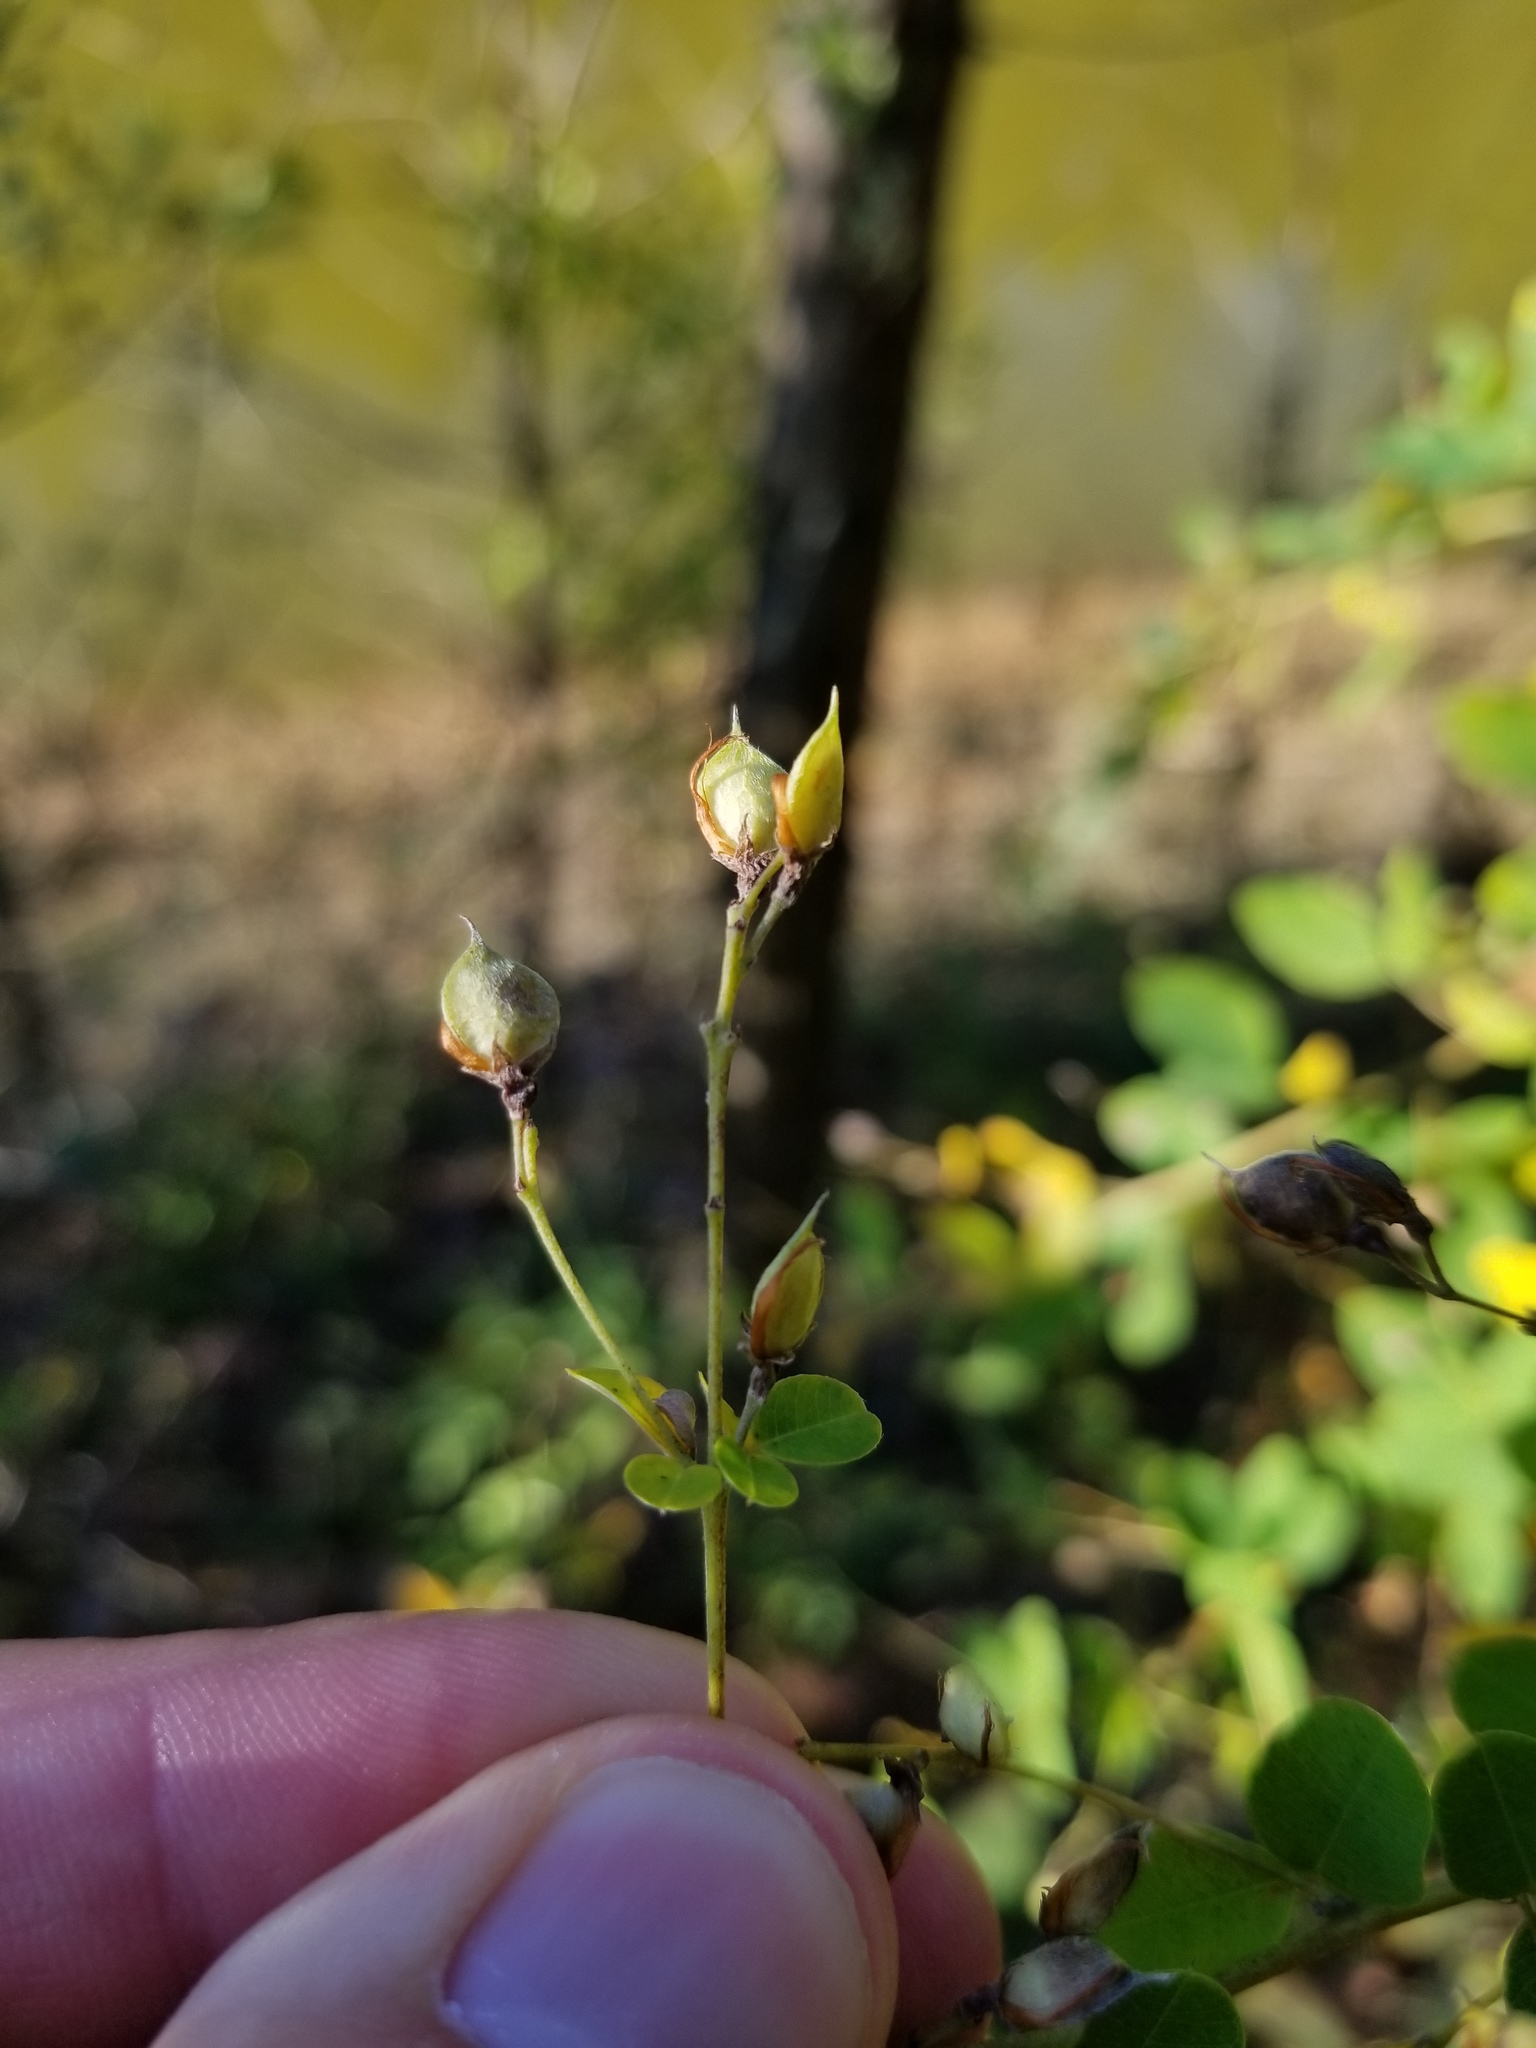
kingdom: Plantae
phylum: Tracheophyta
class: Magnoliopsida
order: Fabales
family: Fabaceae
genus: Lespedeza
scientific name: Lespedeza bicolor
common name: Shrub lespedeza
